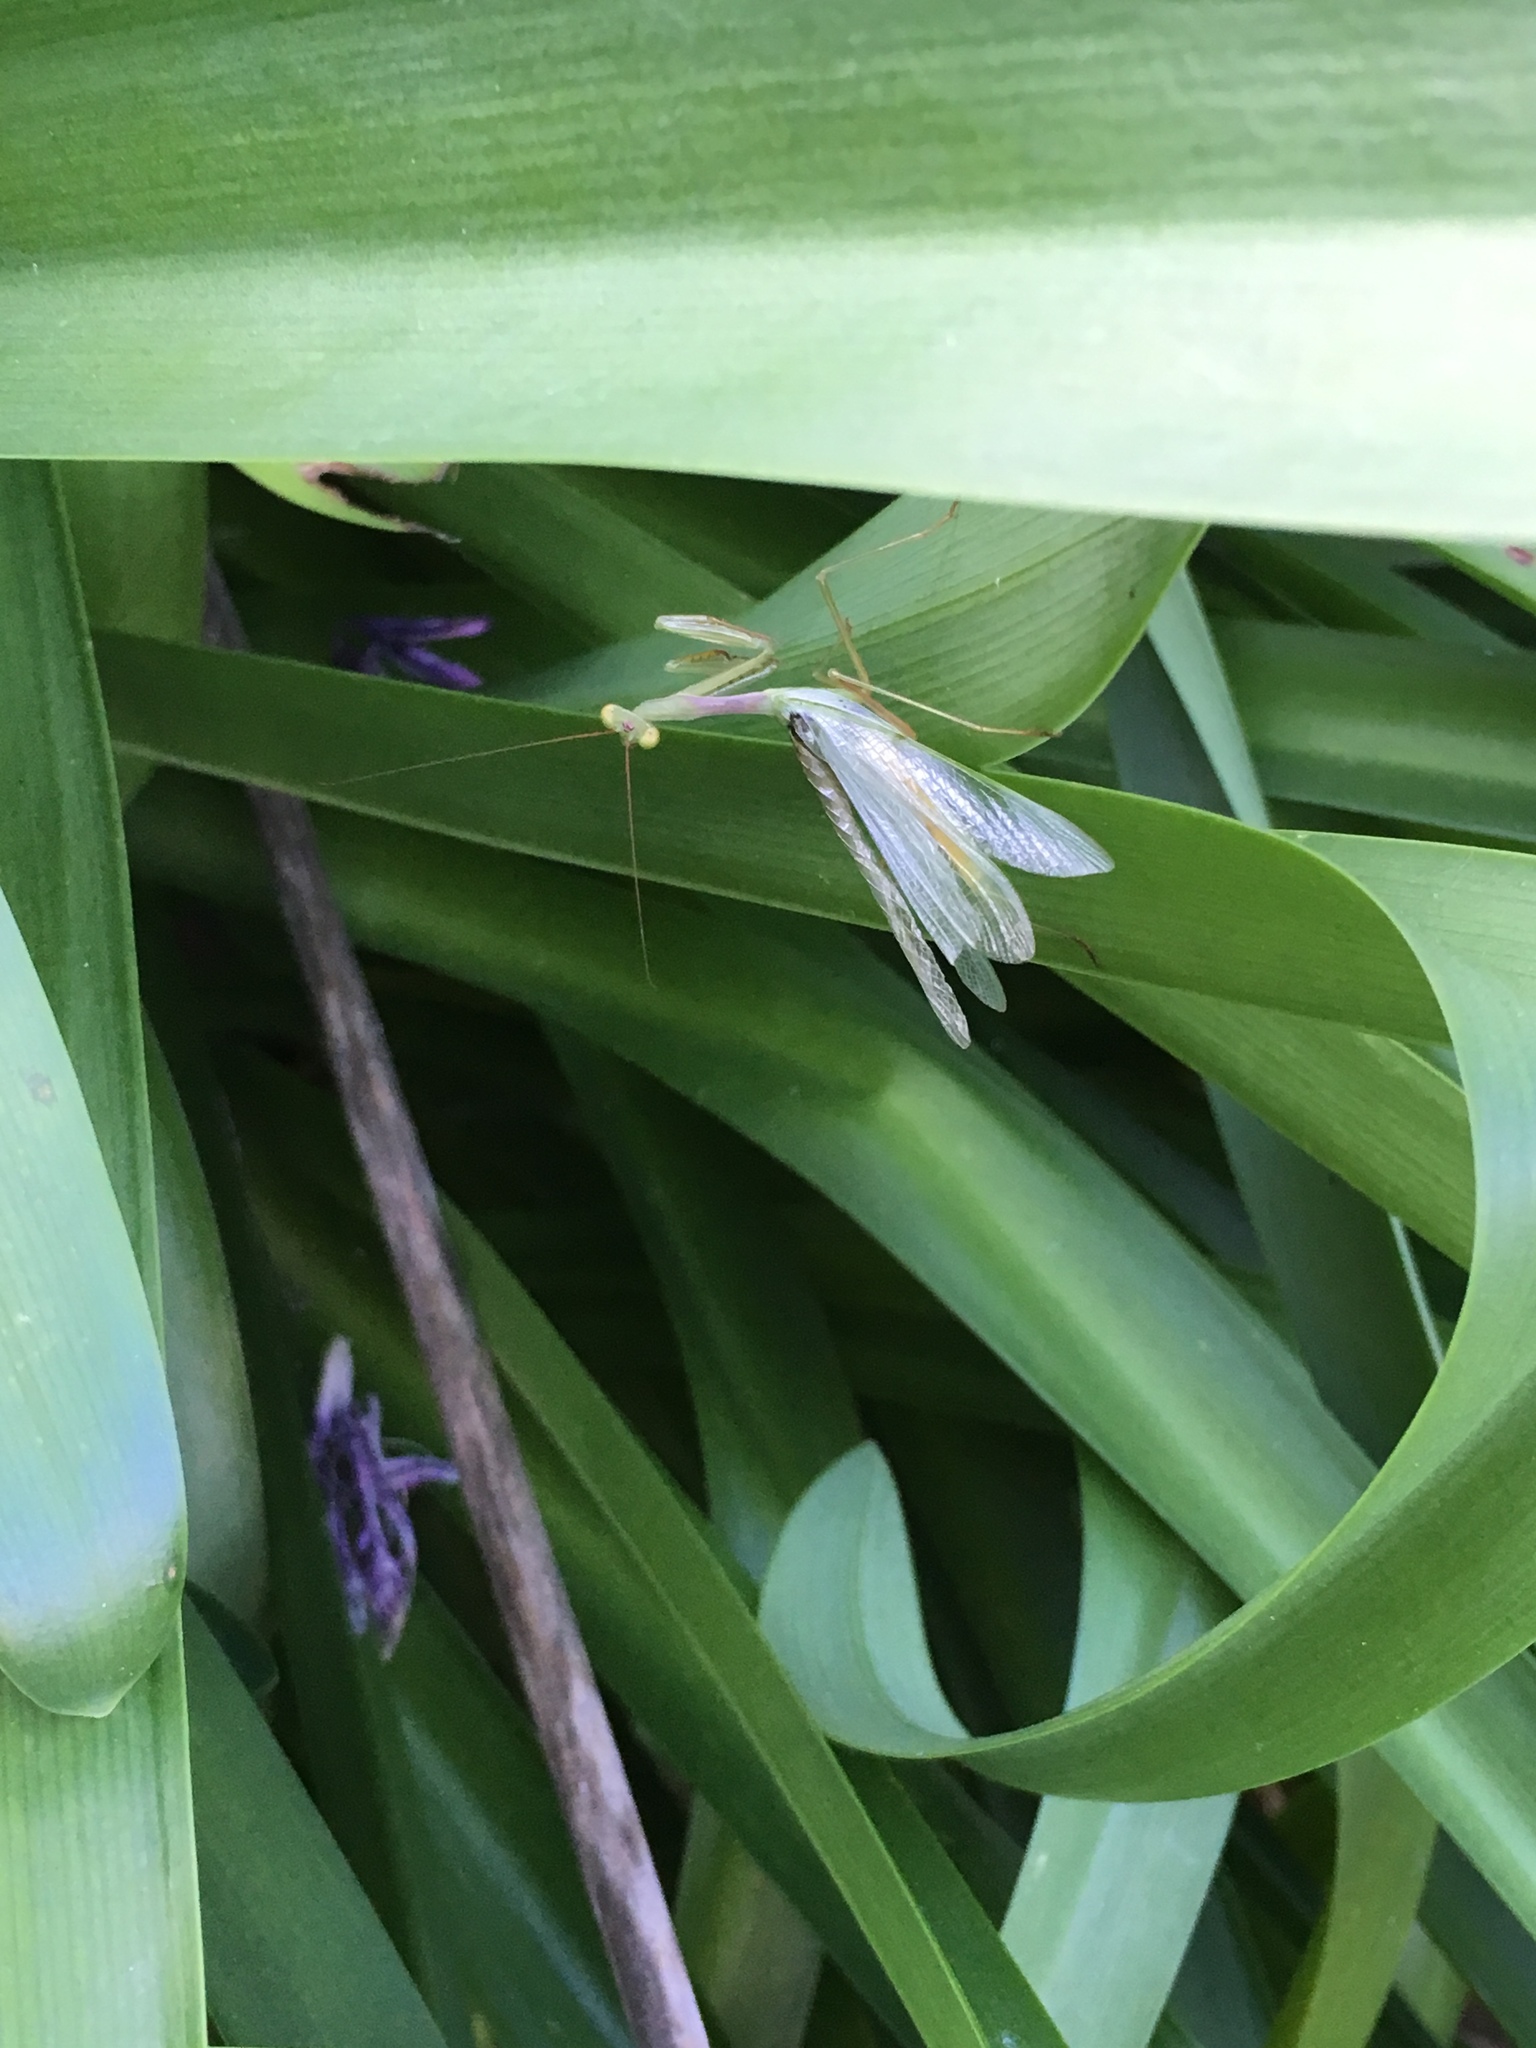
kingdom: Animalia
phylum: Arthropoda
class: Insecta
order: Mantodea
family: Miomantidae
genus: Miomantis
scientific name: Miomantis caffra
